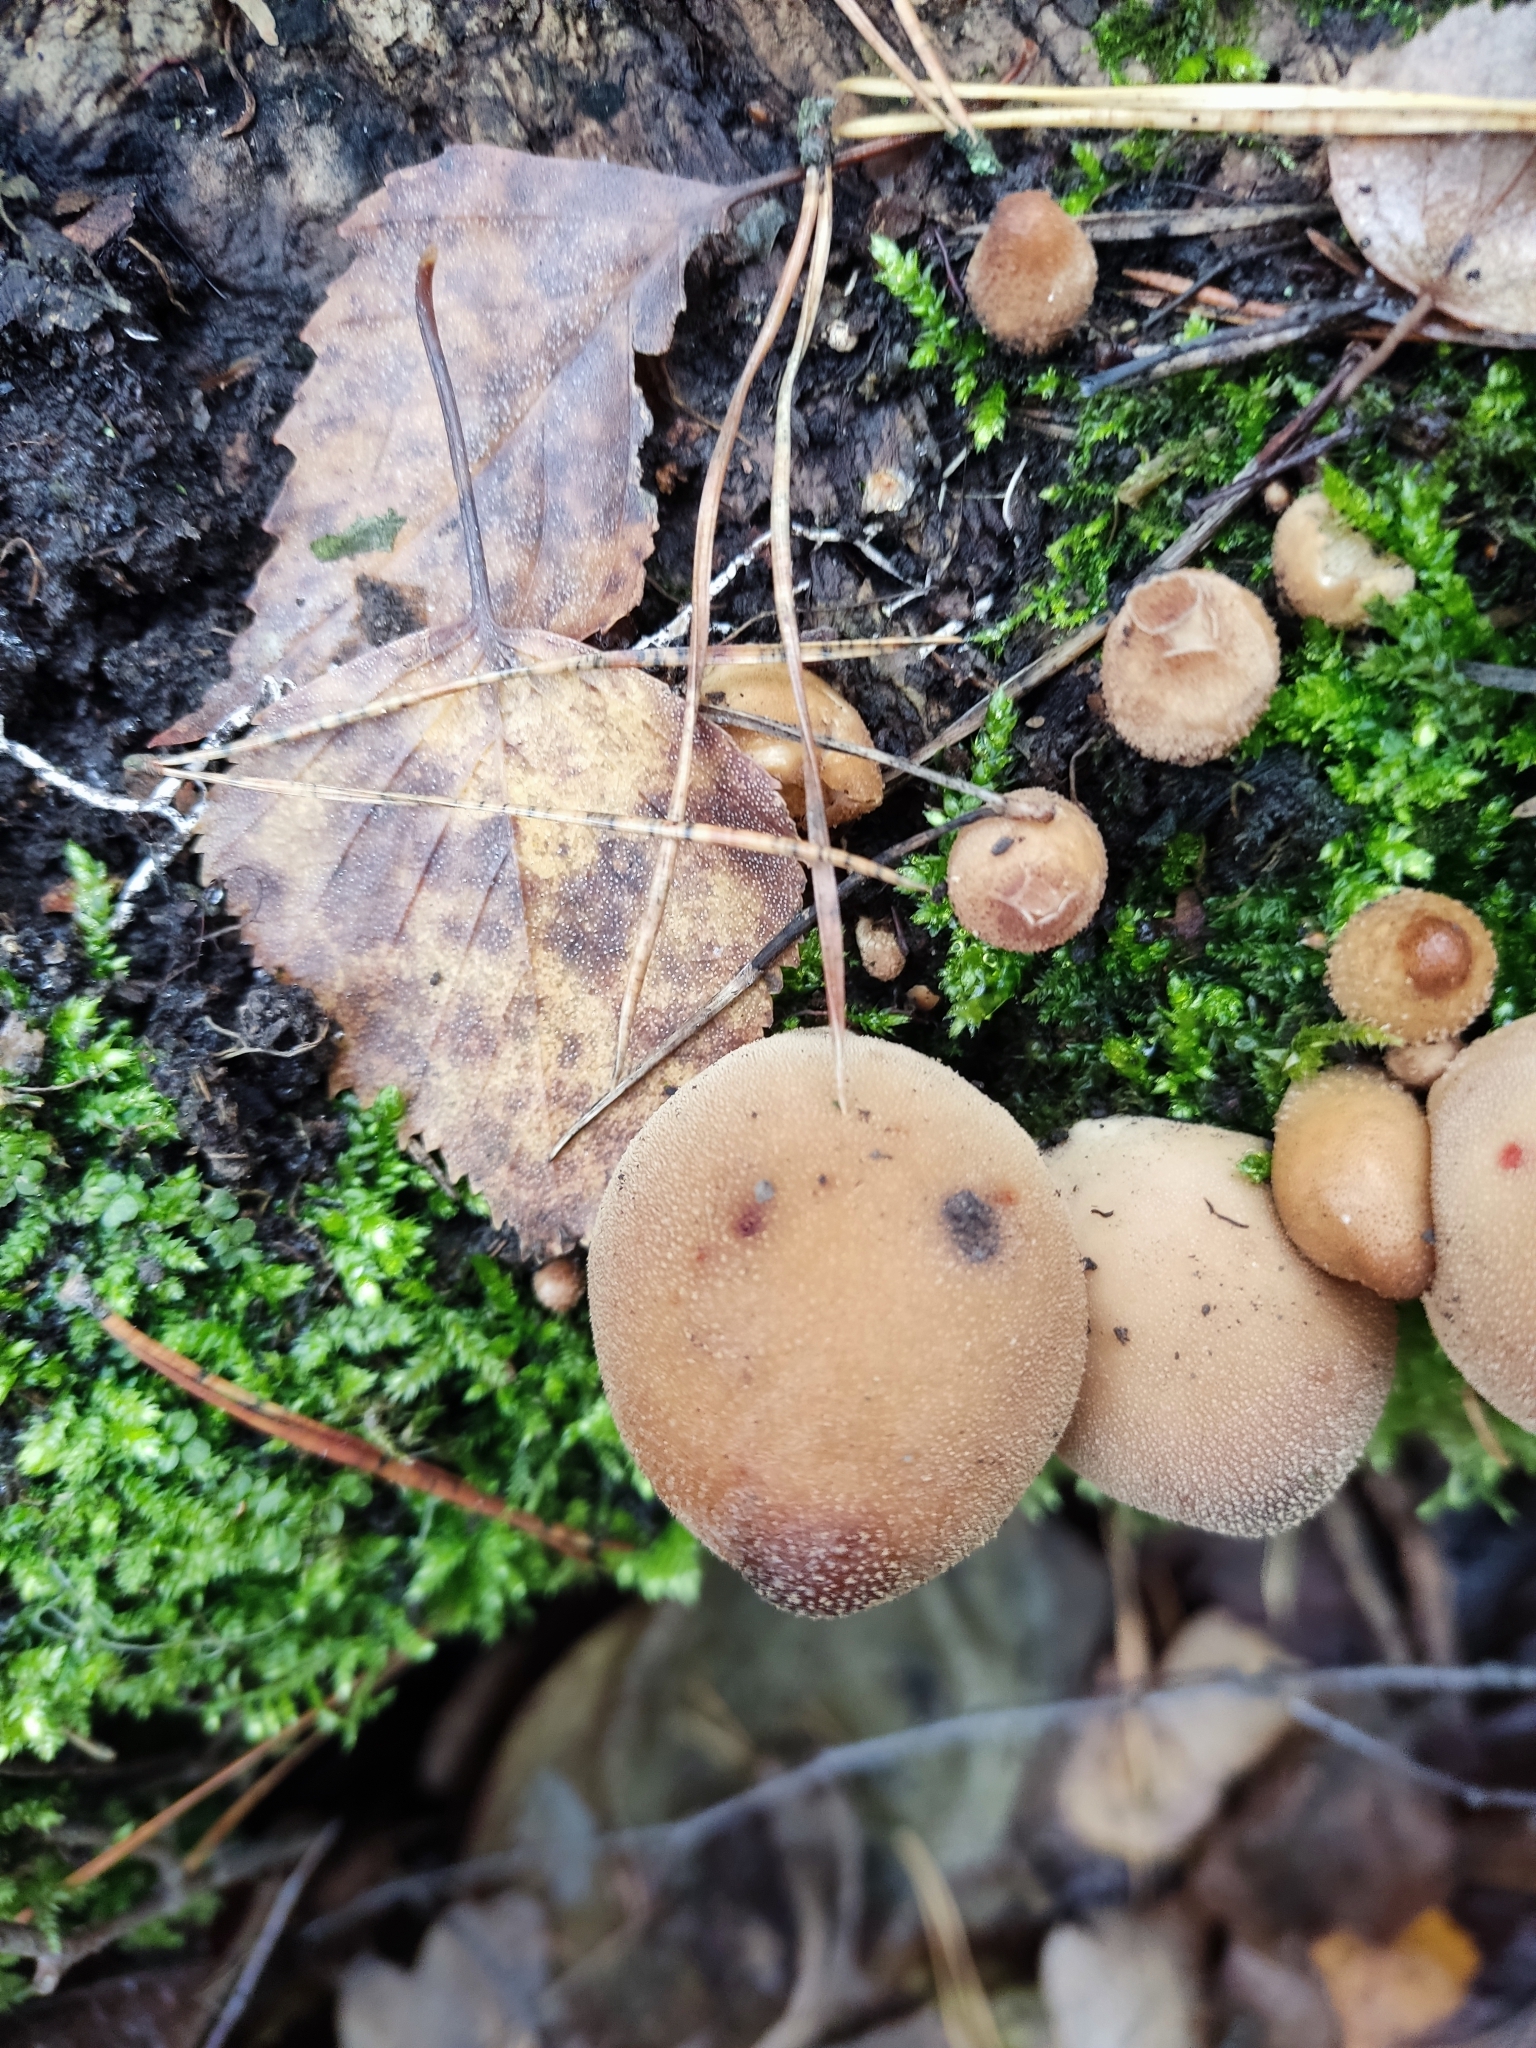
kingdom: Fungi
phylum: Basidiomycota
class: Agaricomycetes
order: Agaricales
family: Lycoperdaceae
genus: Apioperdon
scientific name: Apioperdon pyriforme
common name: Pear-shaped puffball
